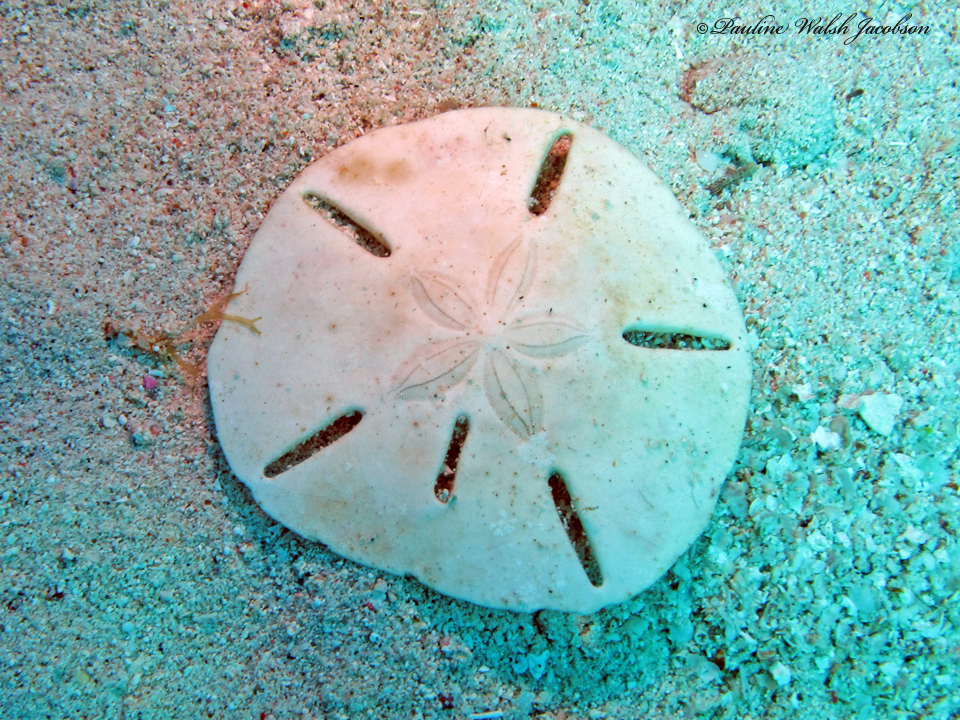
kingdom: Animalia
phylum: Echinodermata
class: Echinoidea
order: Echinolampadacea
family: Mellitidae
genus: Leodia
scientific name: Leodia sexiesperforata
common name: Sand dollar
